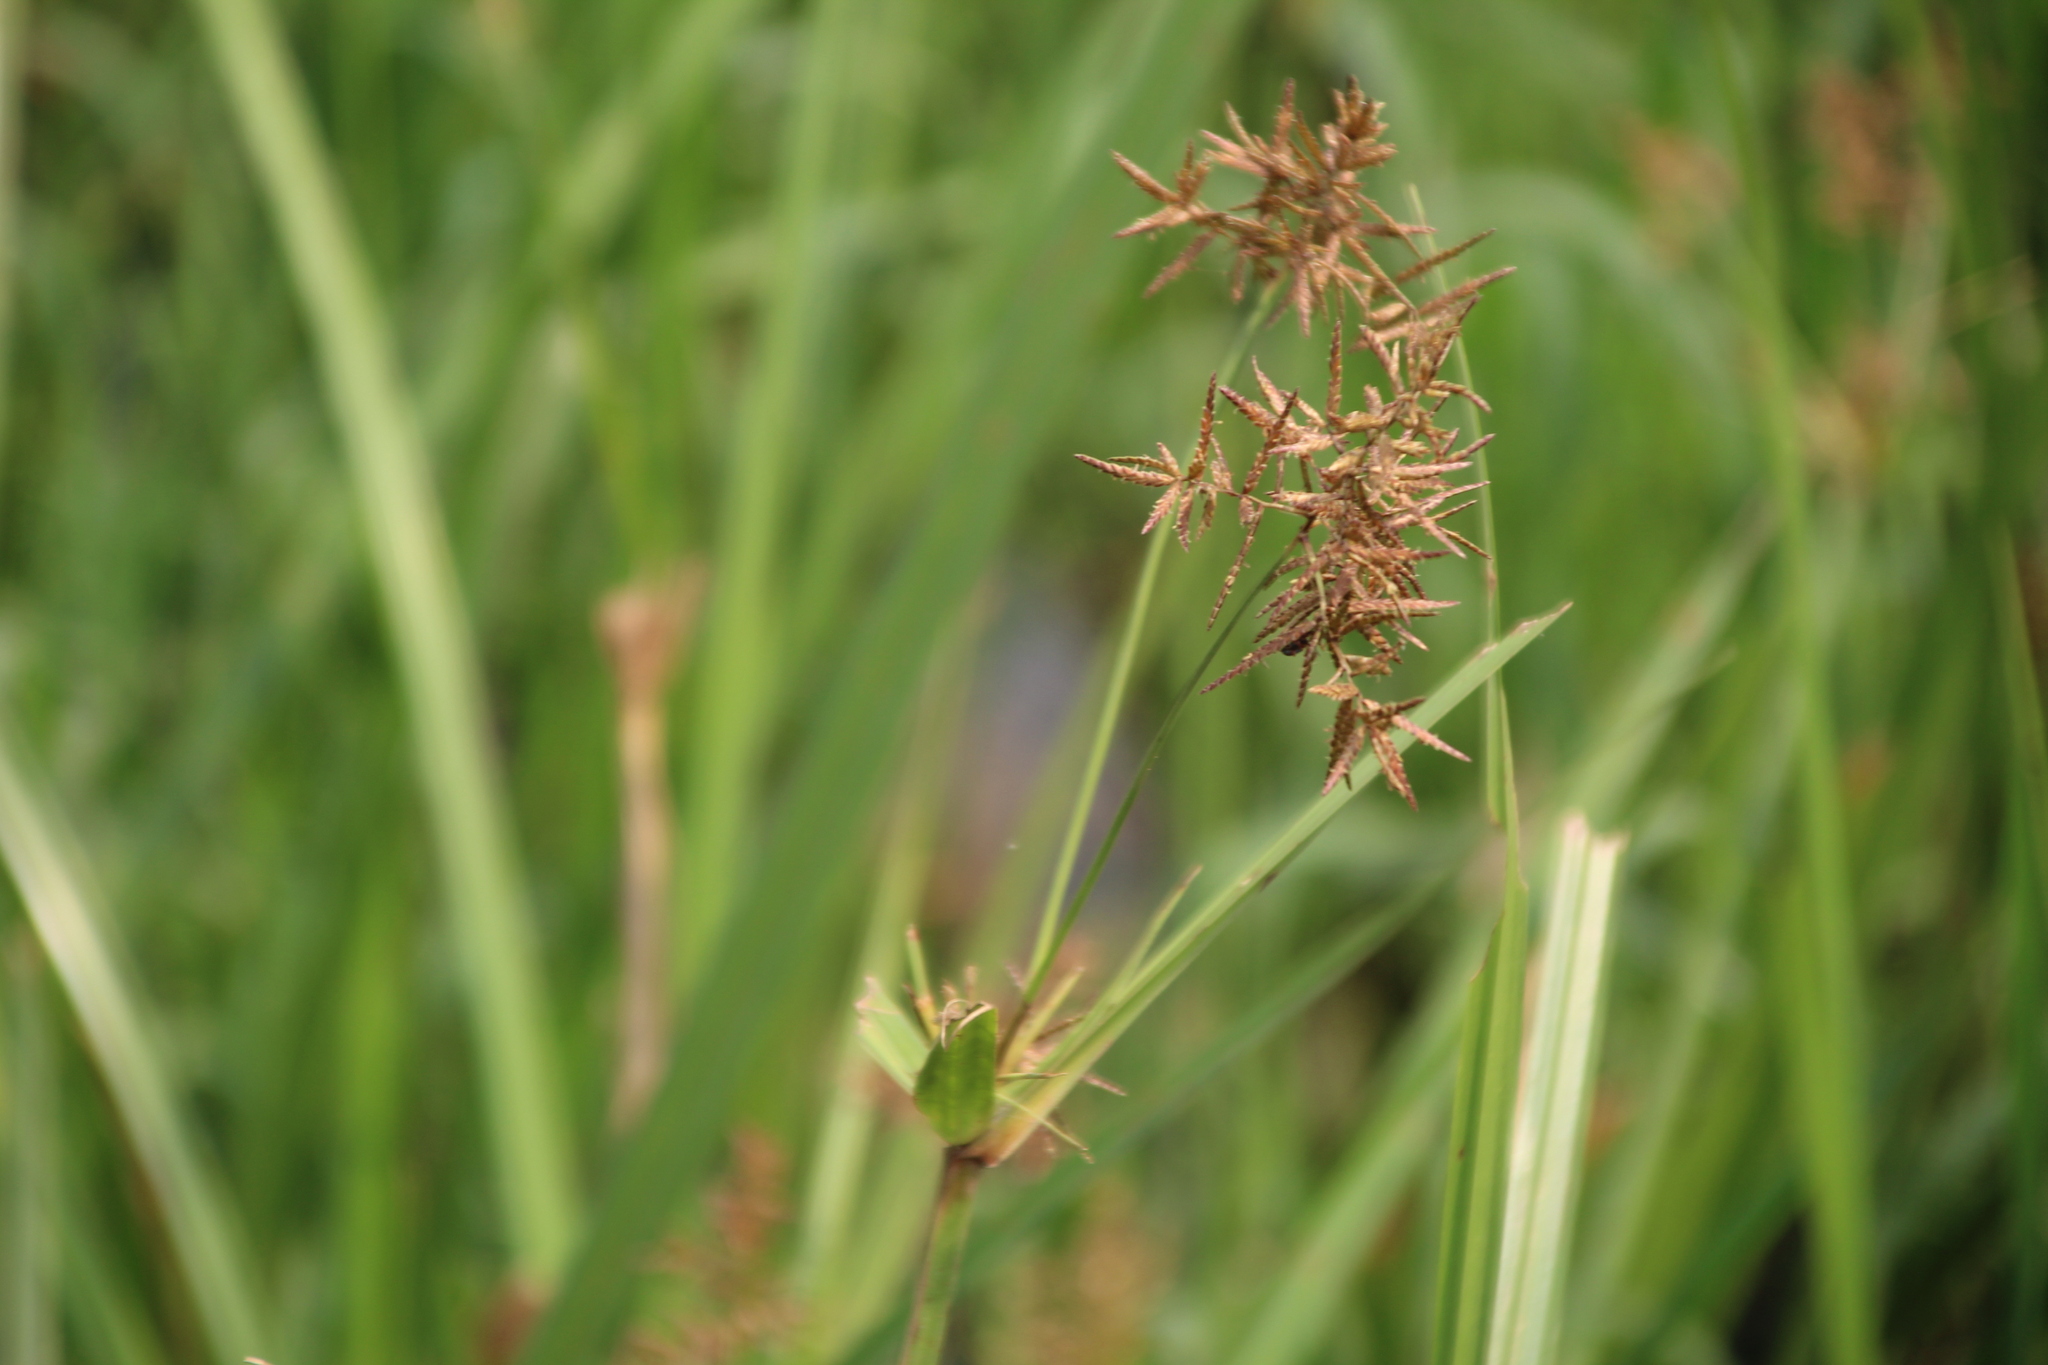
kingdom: Plantae
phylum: Tracheophyta
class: Liliopsida
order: Poales
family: Cyperaceae
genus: Cyperus
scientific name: Cyperus latifolius
